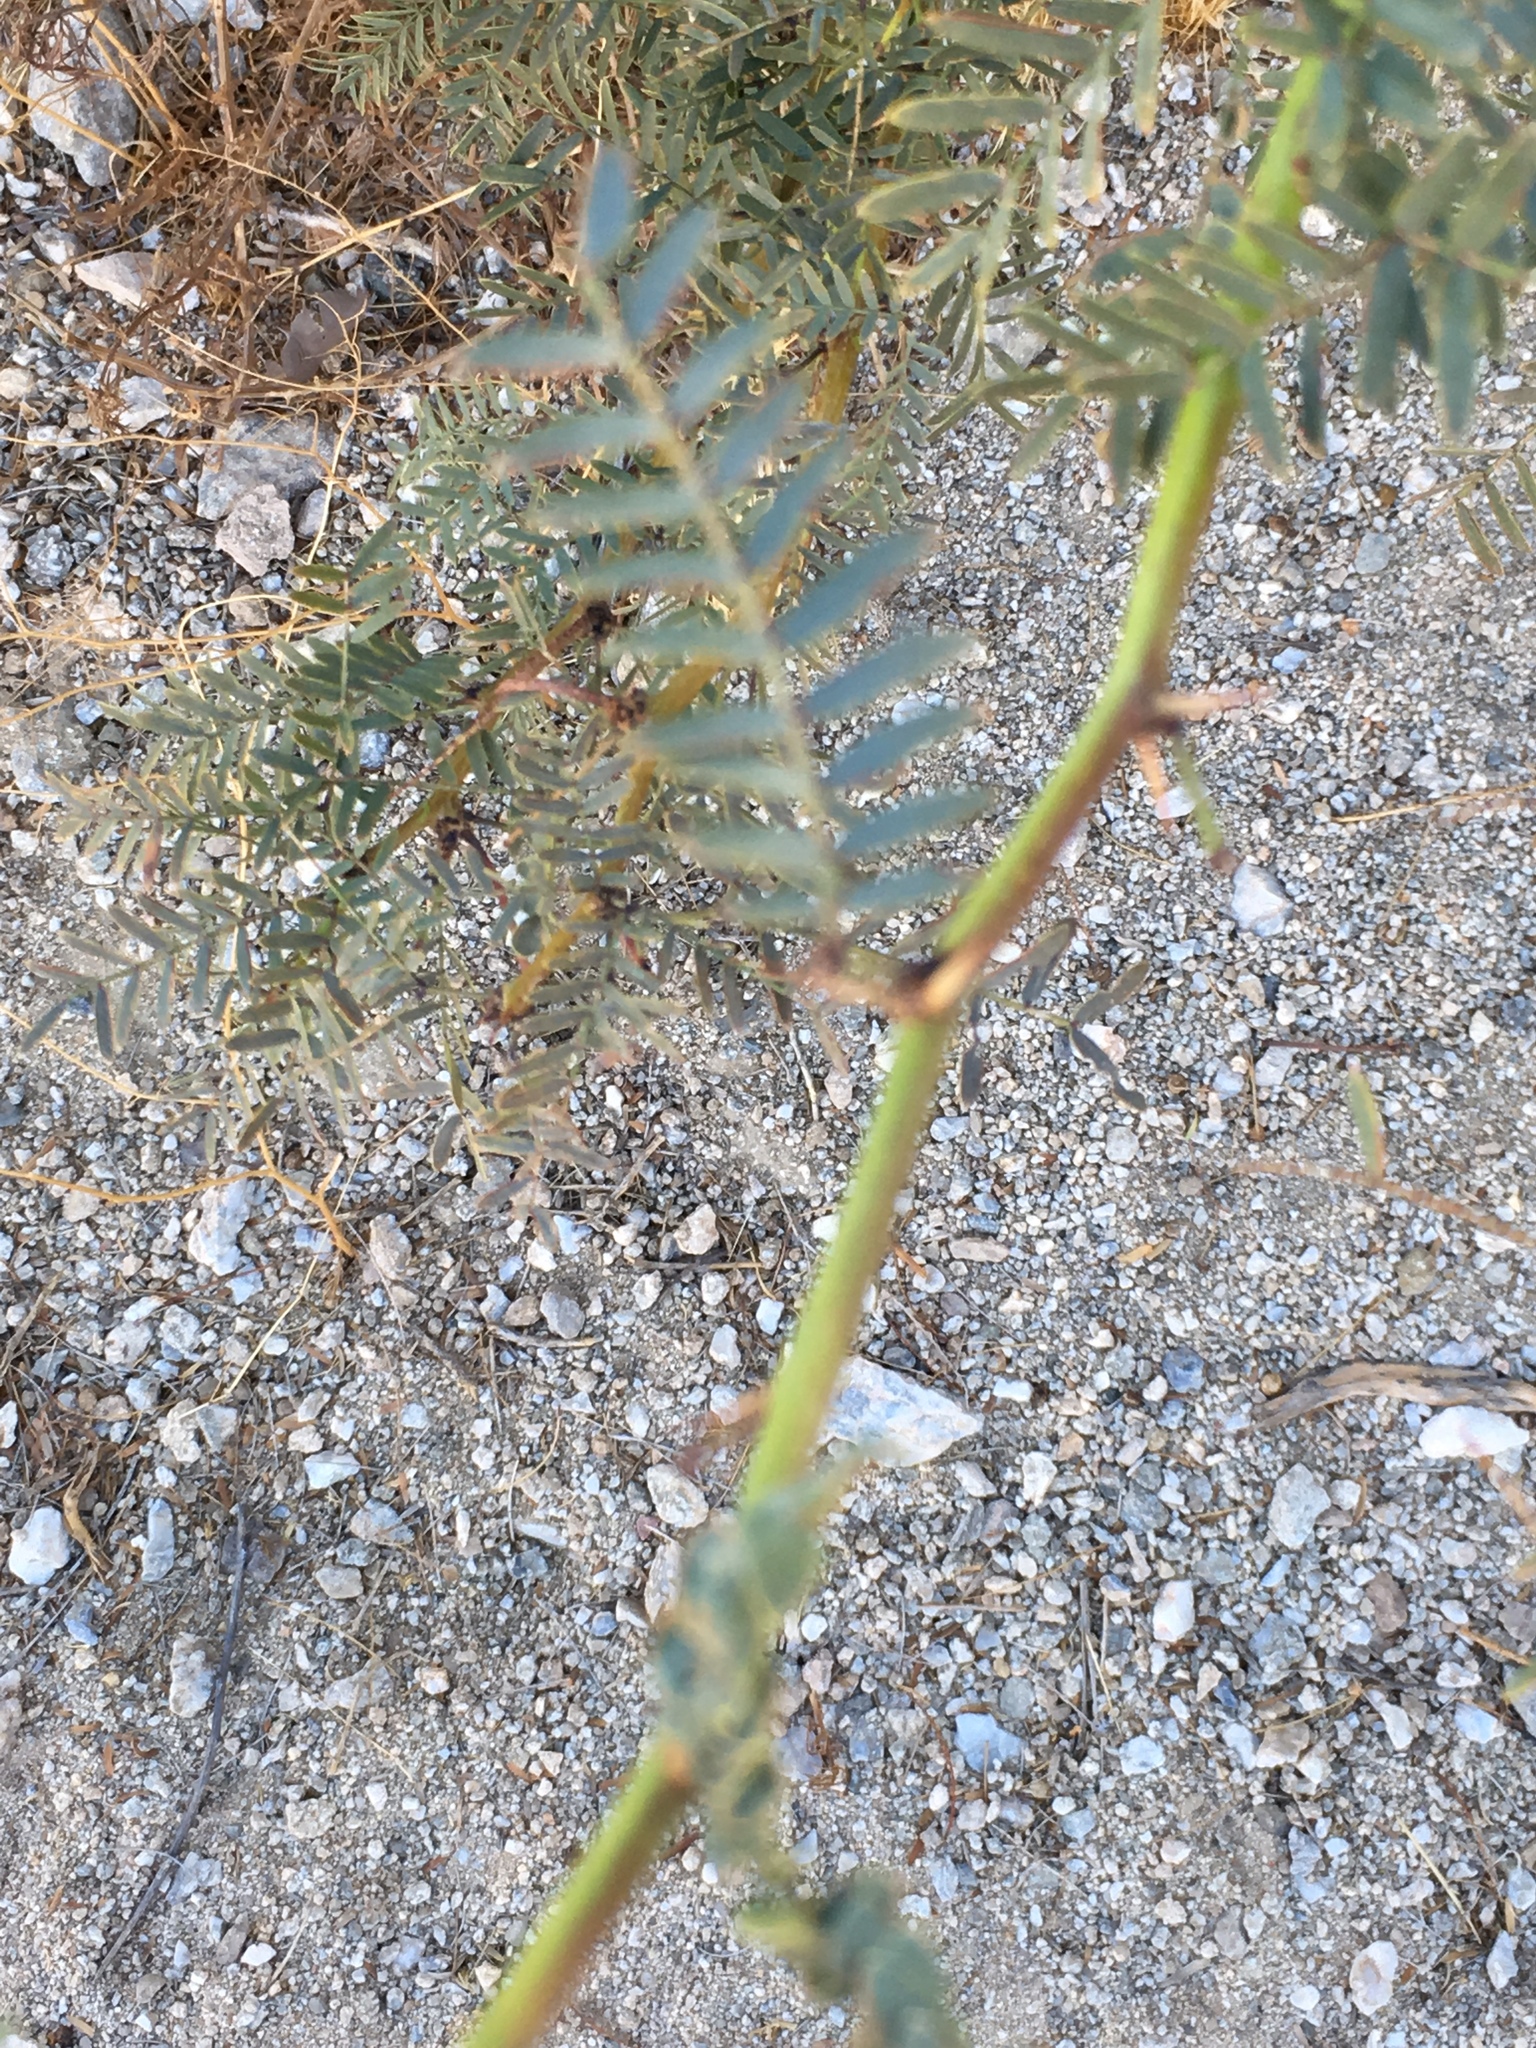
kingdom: Plantae
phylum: Tracheophyta
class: Magnoliopsida
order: Fabales
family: Fabaceae
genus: Prosopis
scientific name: Prosopis pubescens
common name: Screw-bean
